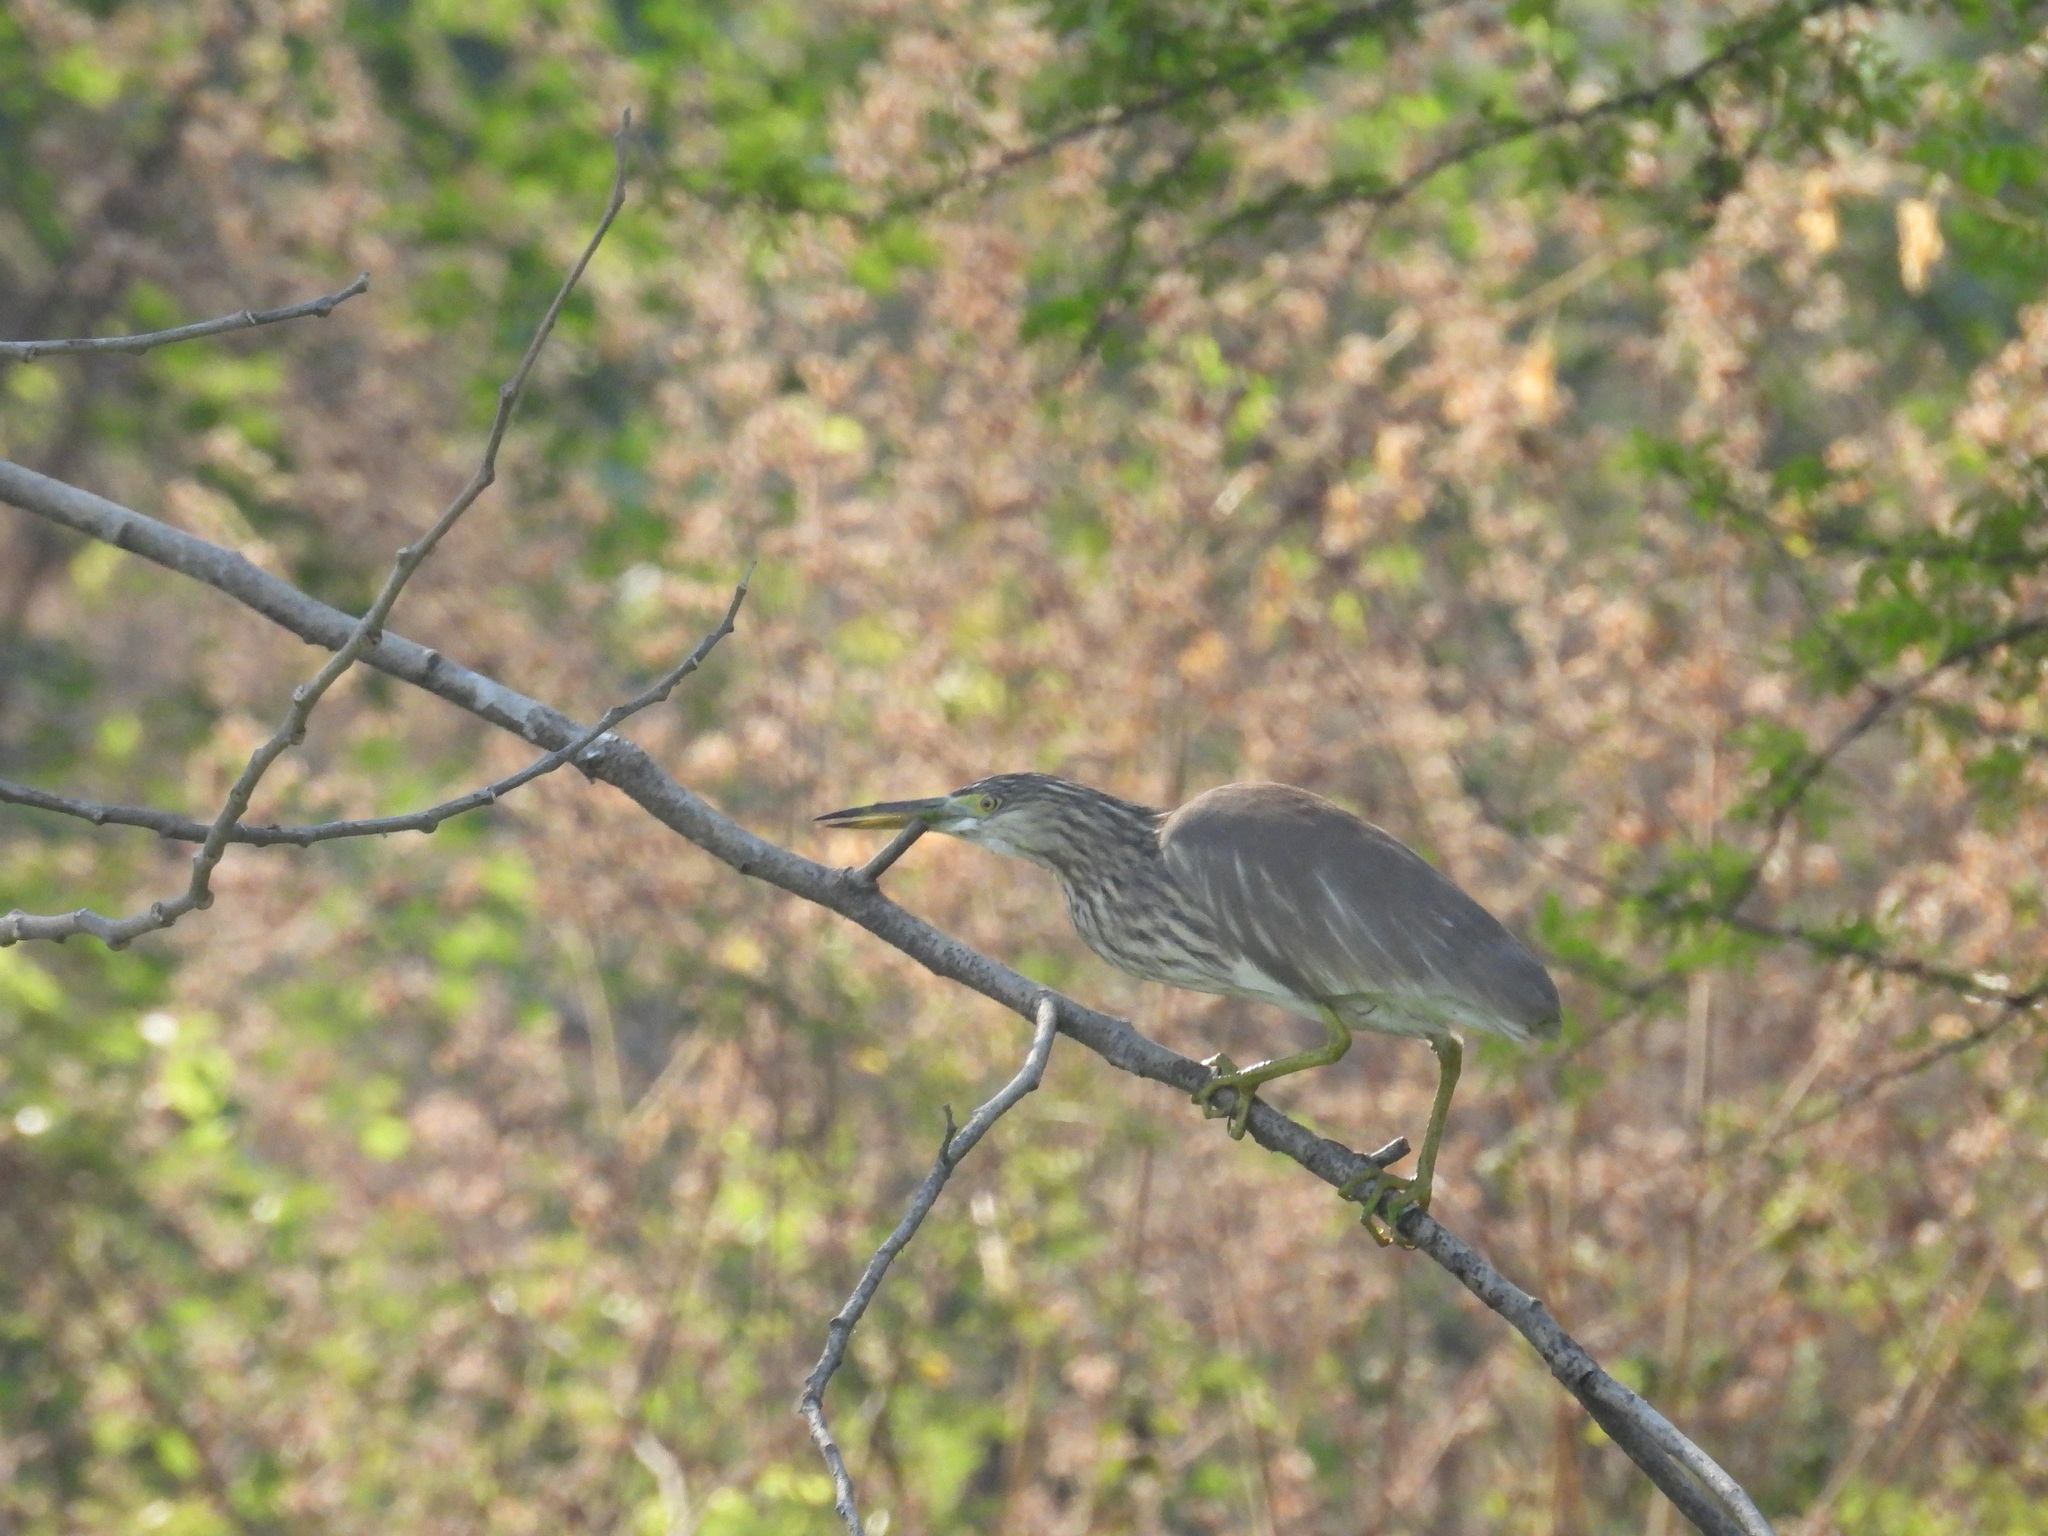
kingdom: Animalia
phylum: Chordata
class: Aves
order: Pelecaniformes
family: Ardeidae
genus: Ardeola
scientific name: Ardeola grayii
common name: Indian pond heron
